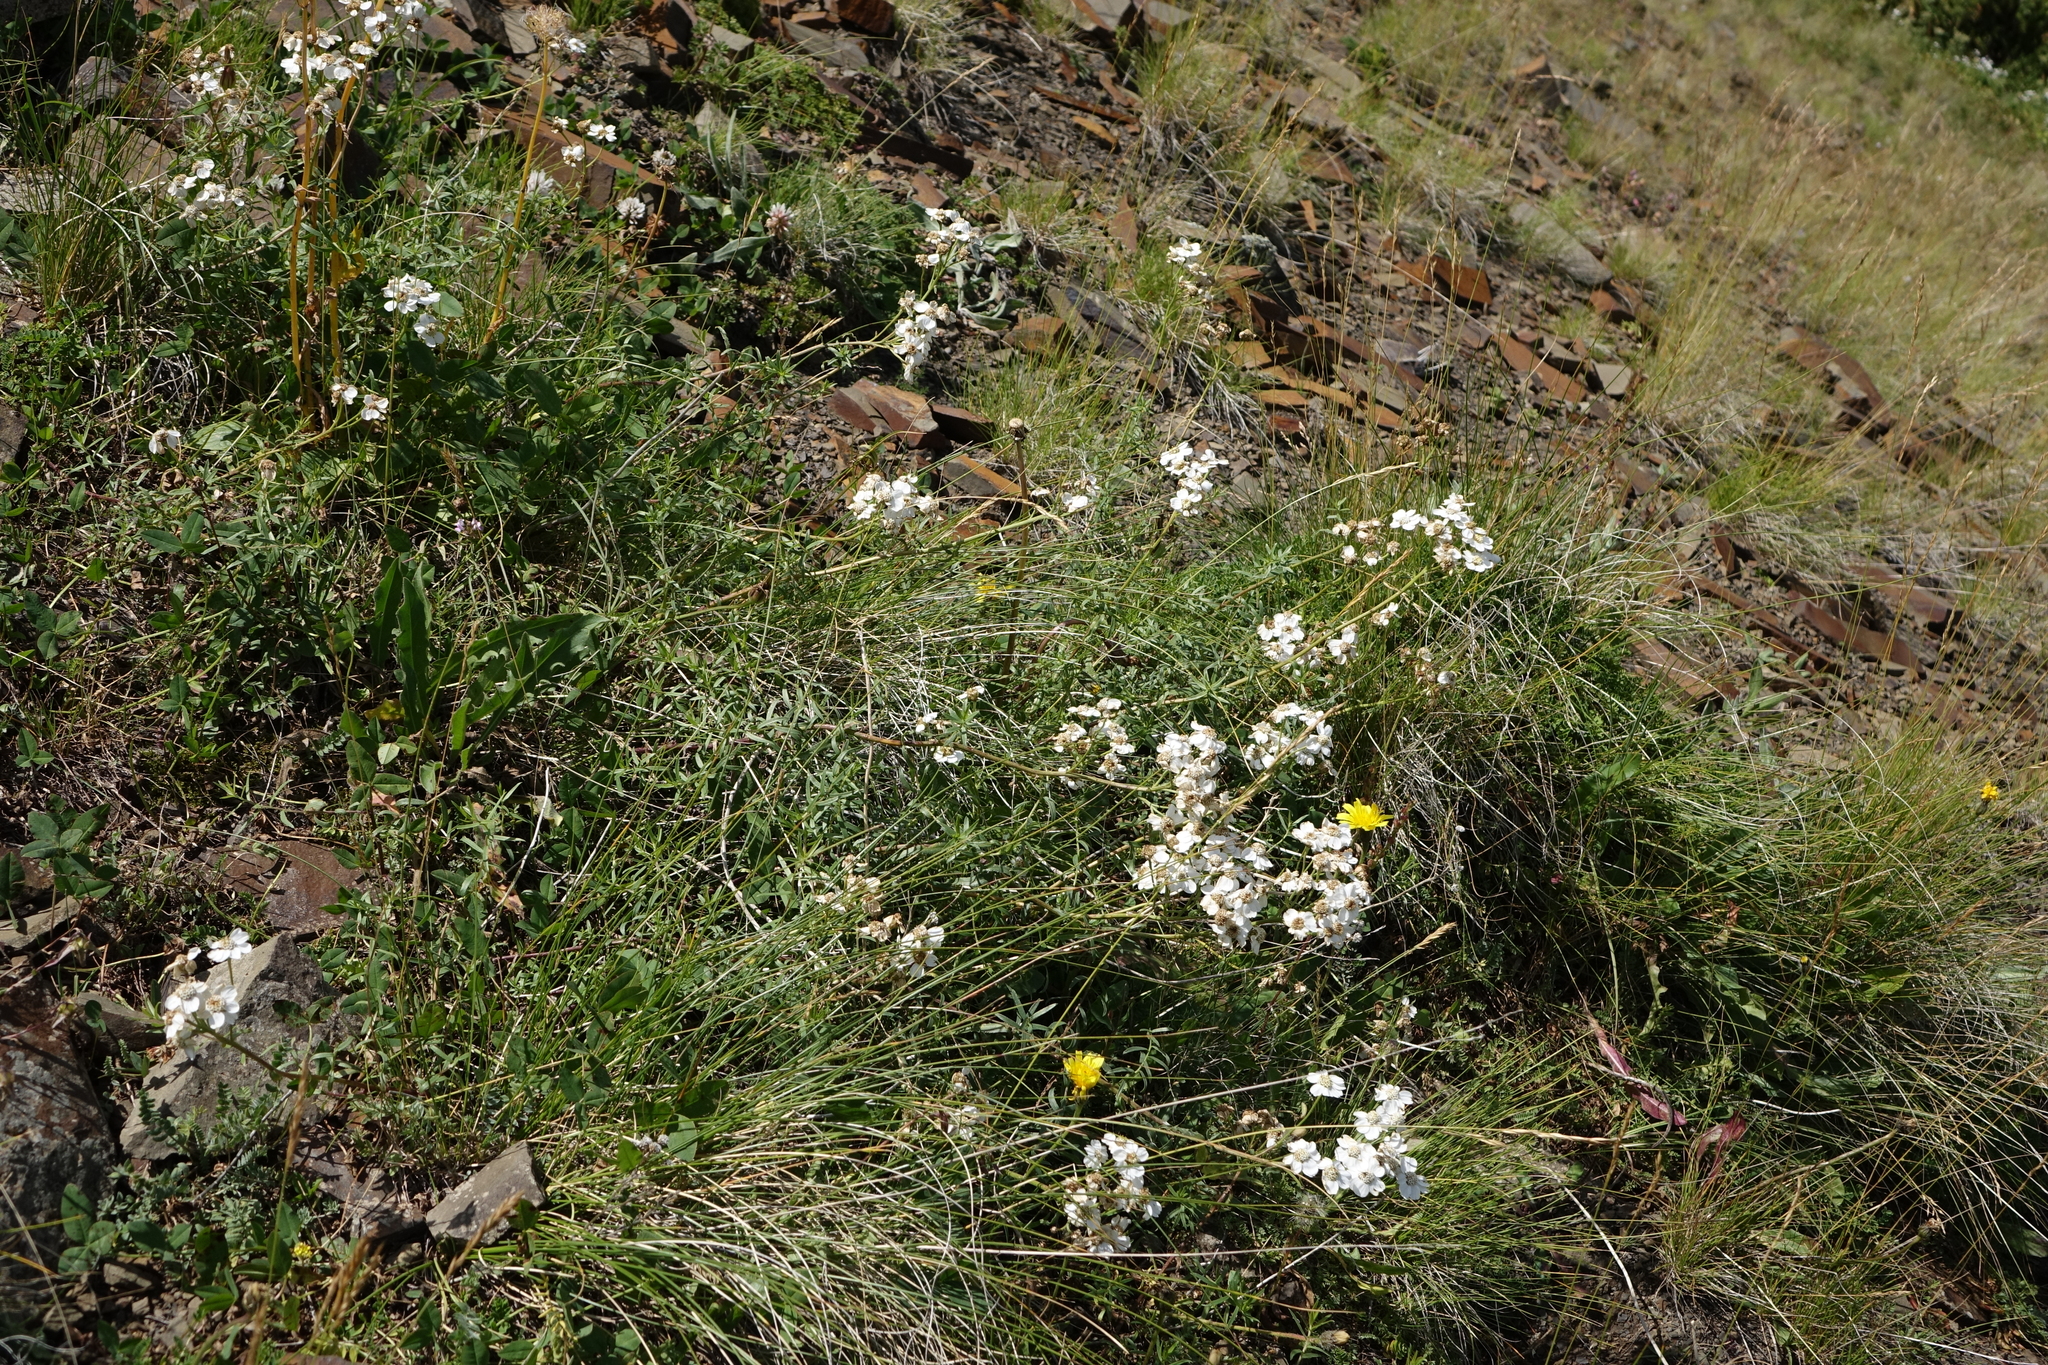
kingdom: Plantae
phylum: Tracheophyta
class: Magnoliopsida
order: Asterales
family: Asteraceae
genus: Achillea
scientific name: Achillea ptarmicifolia
